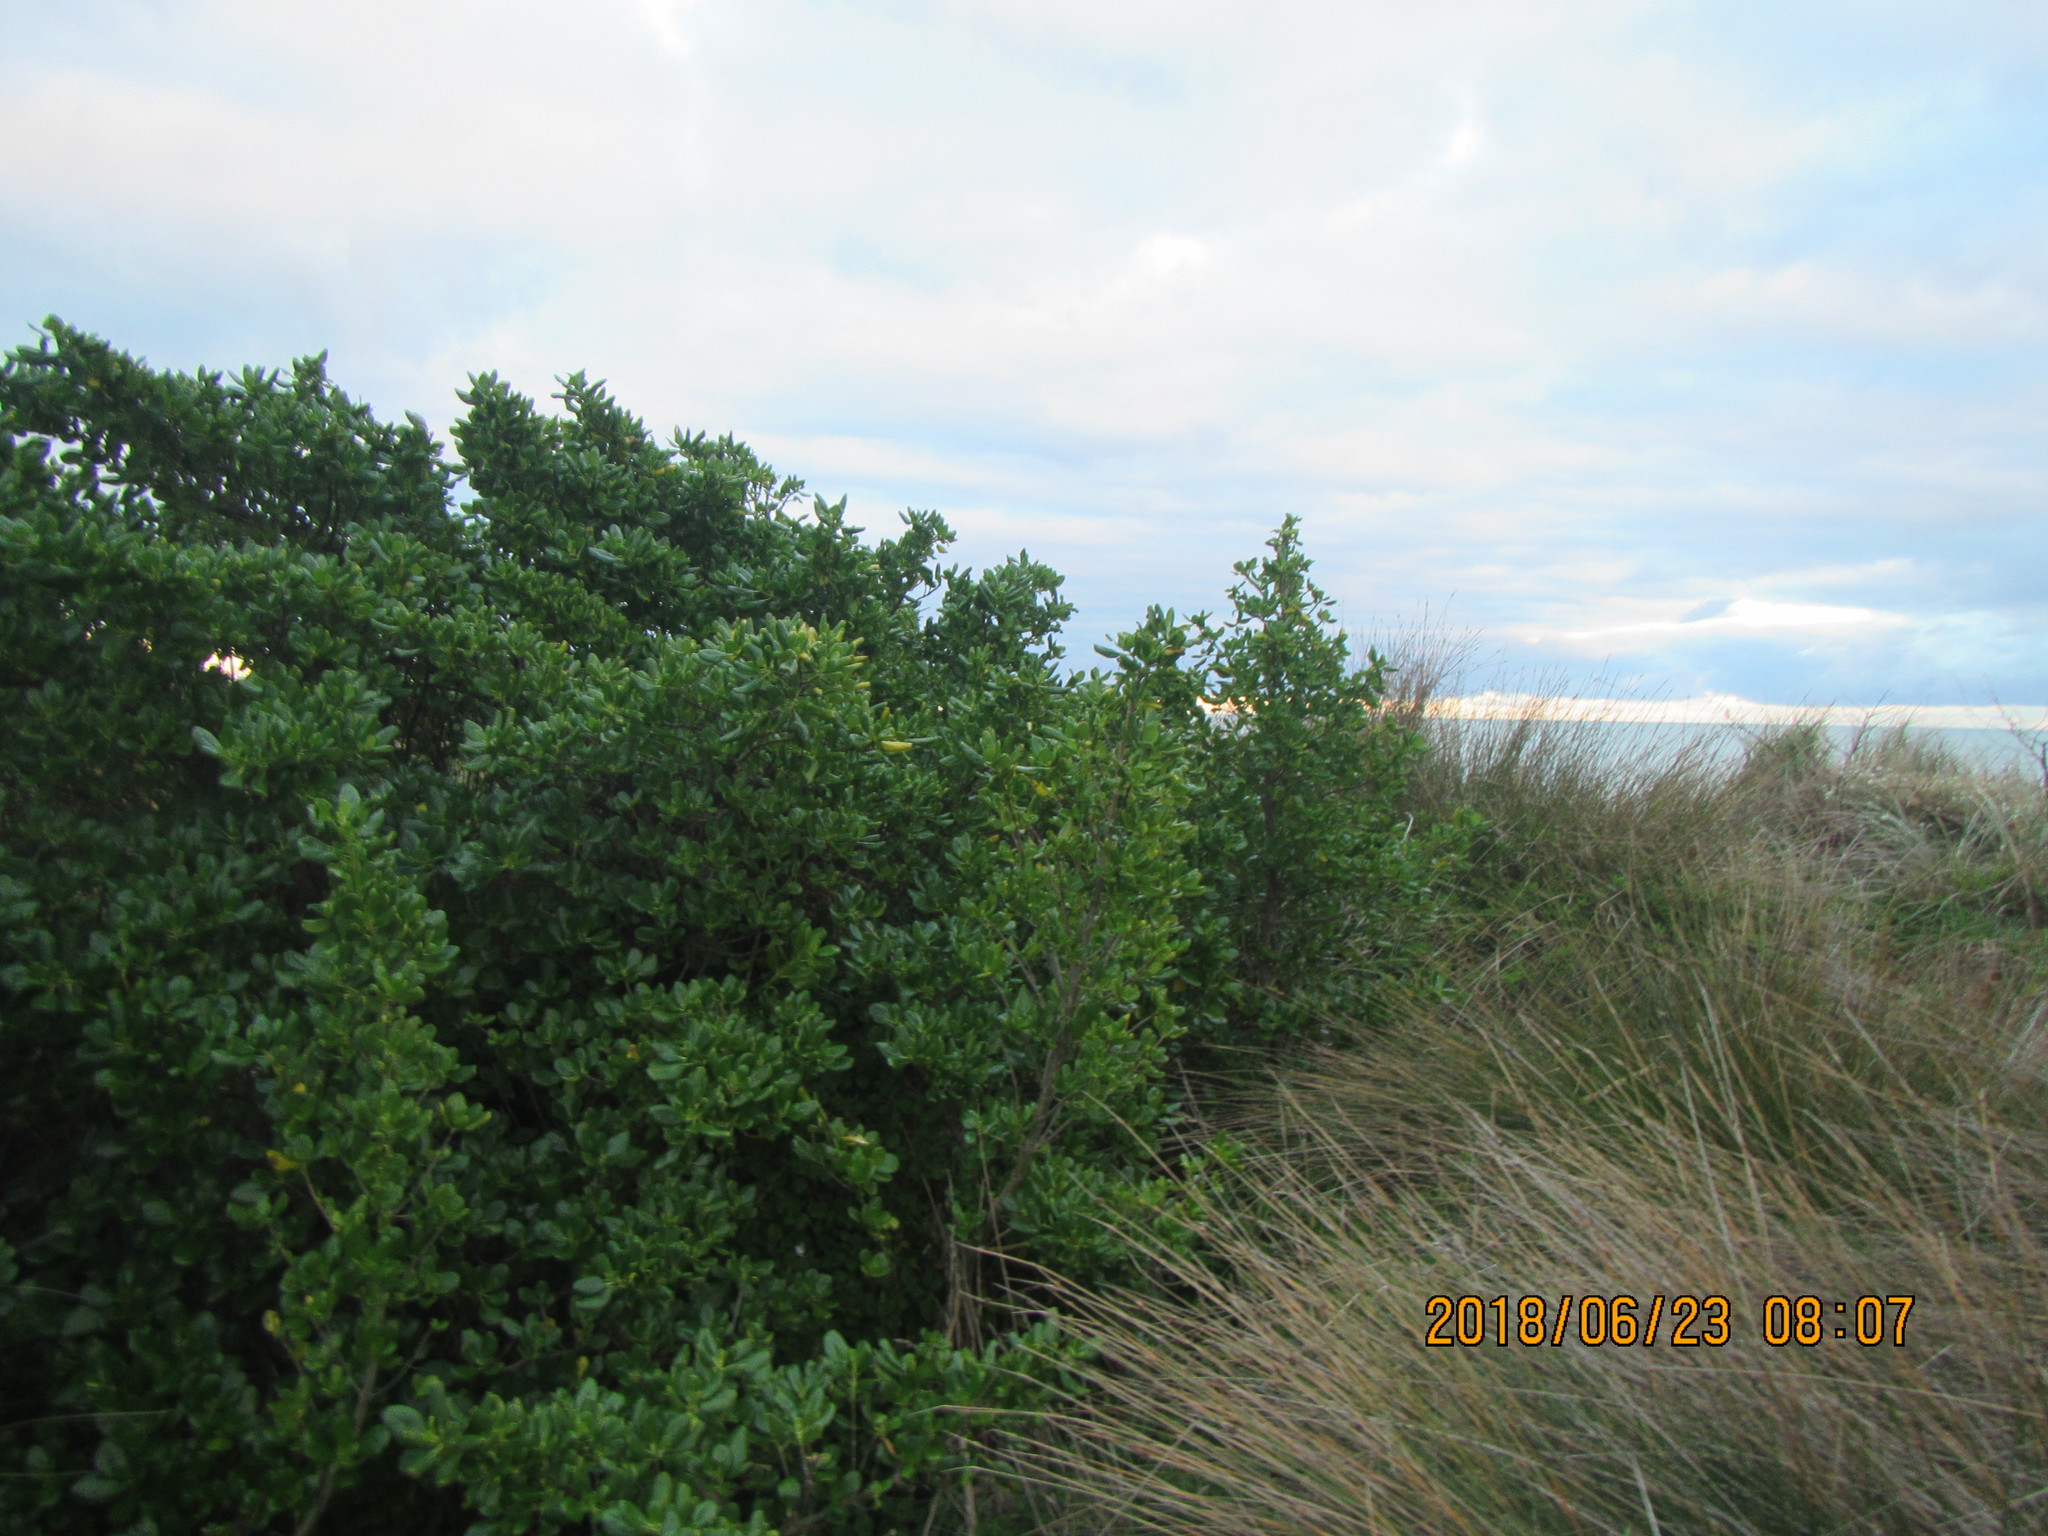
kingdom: Plantae
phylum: Tracheophyta
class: Magnoliopsida
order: Gentianales
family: Rubiaceae
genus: Coprosma
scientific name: Coprosma repens
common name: Tree bedstraw
